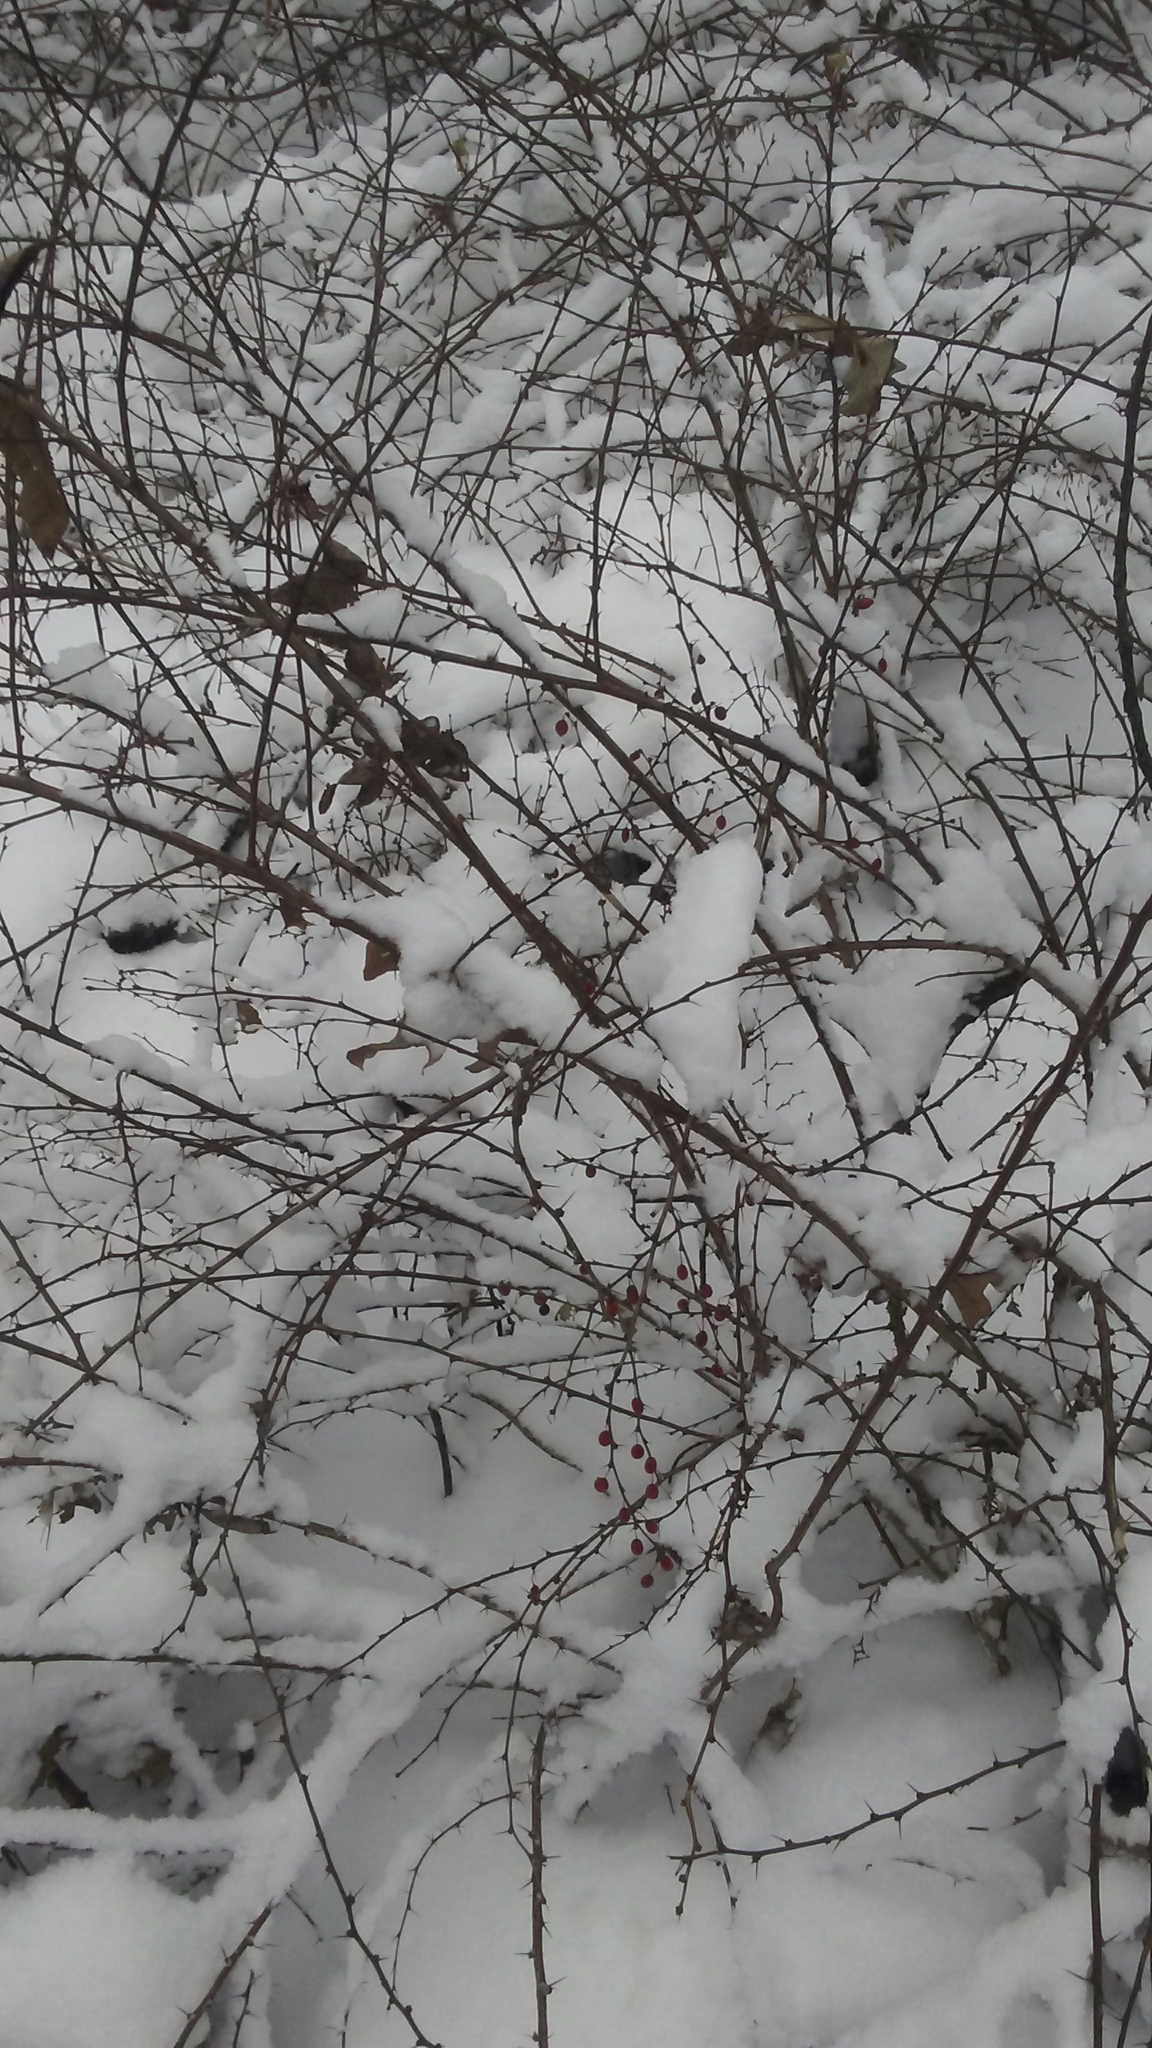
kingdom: Plantae
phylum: Tracheophyta
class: Magnoliopsida
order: Ranunculales
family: Berberidaceae
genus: Berberis
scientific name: Berberis thunbergii
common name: Japanese barberry
